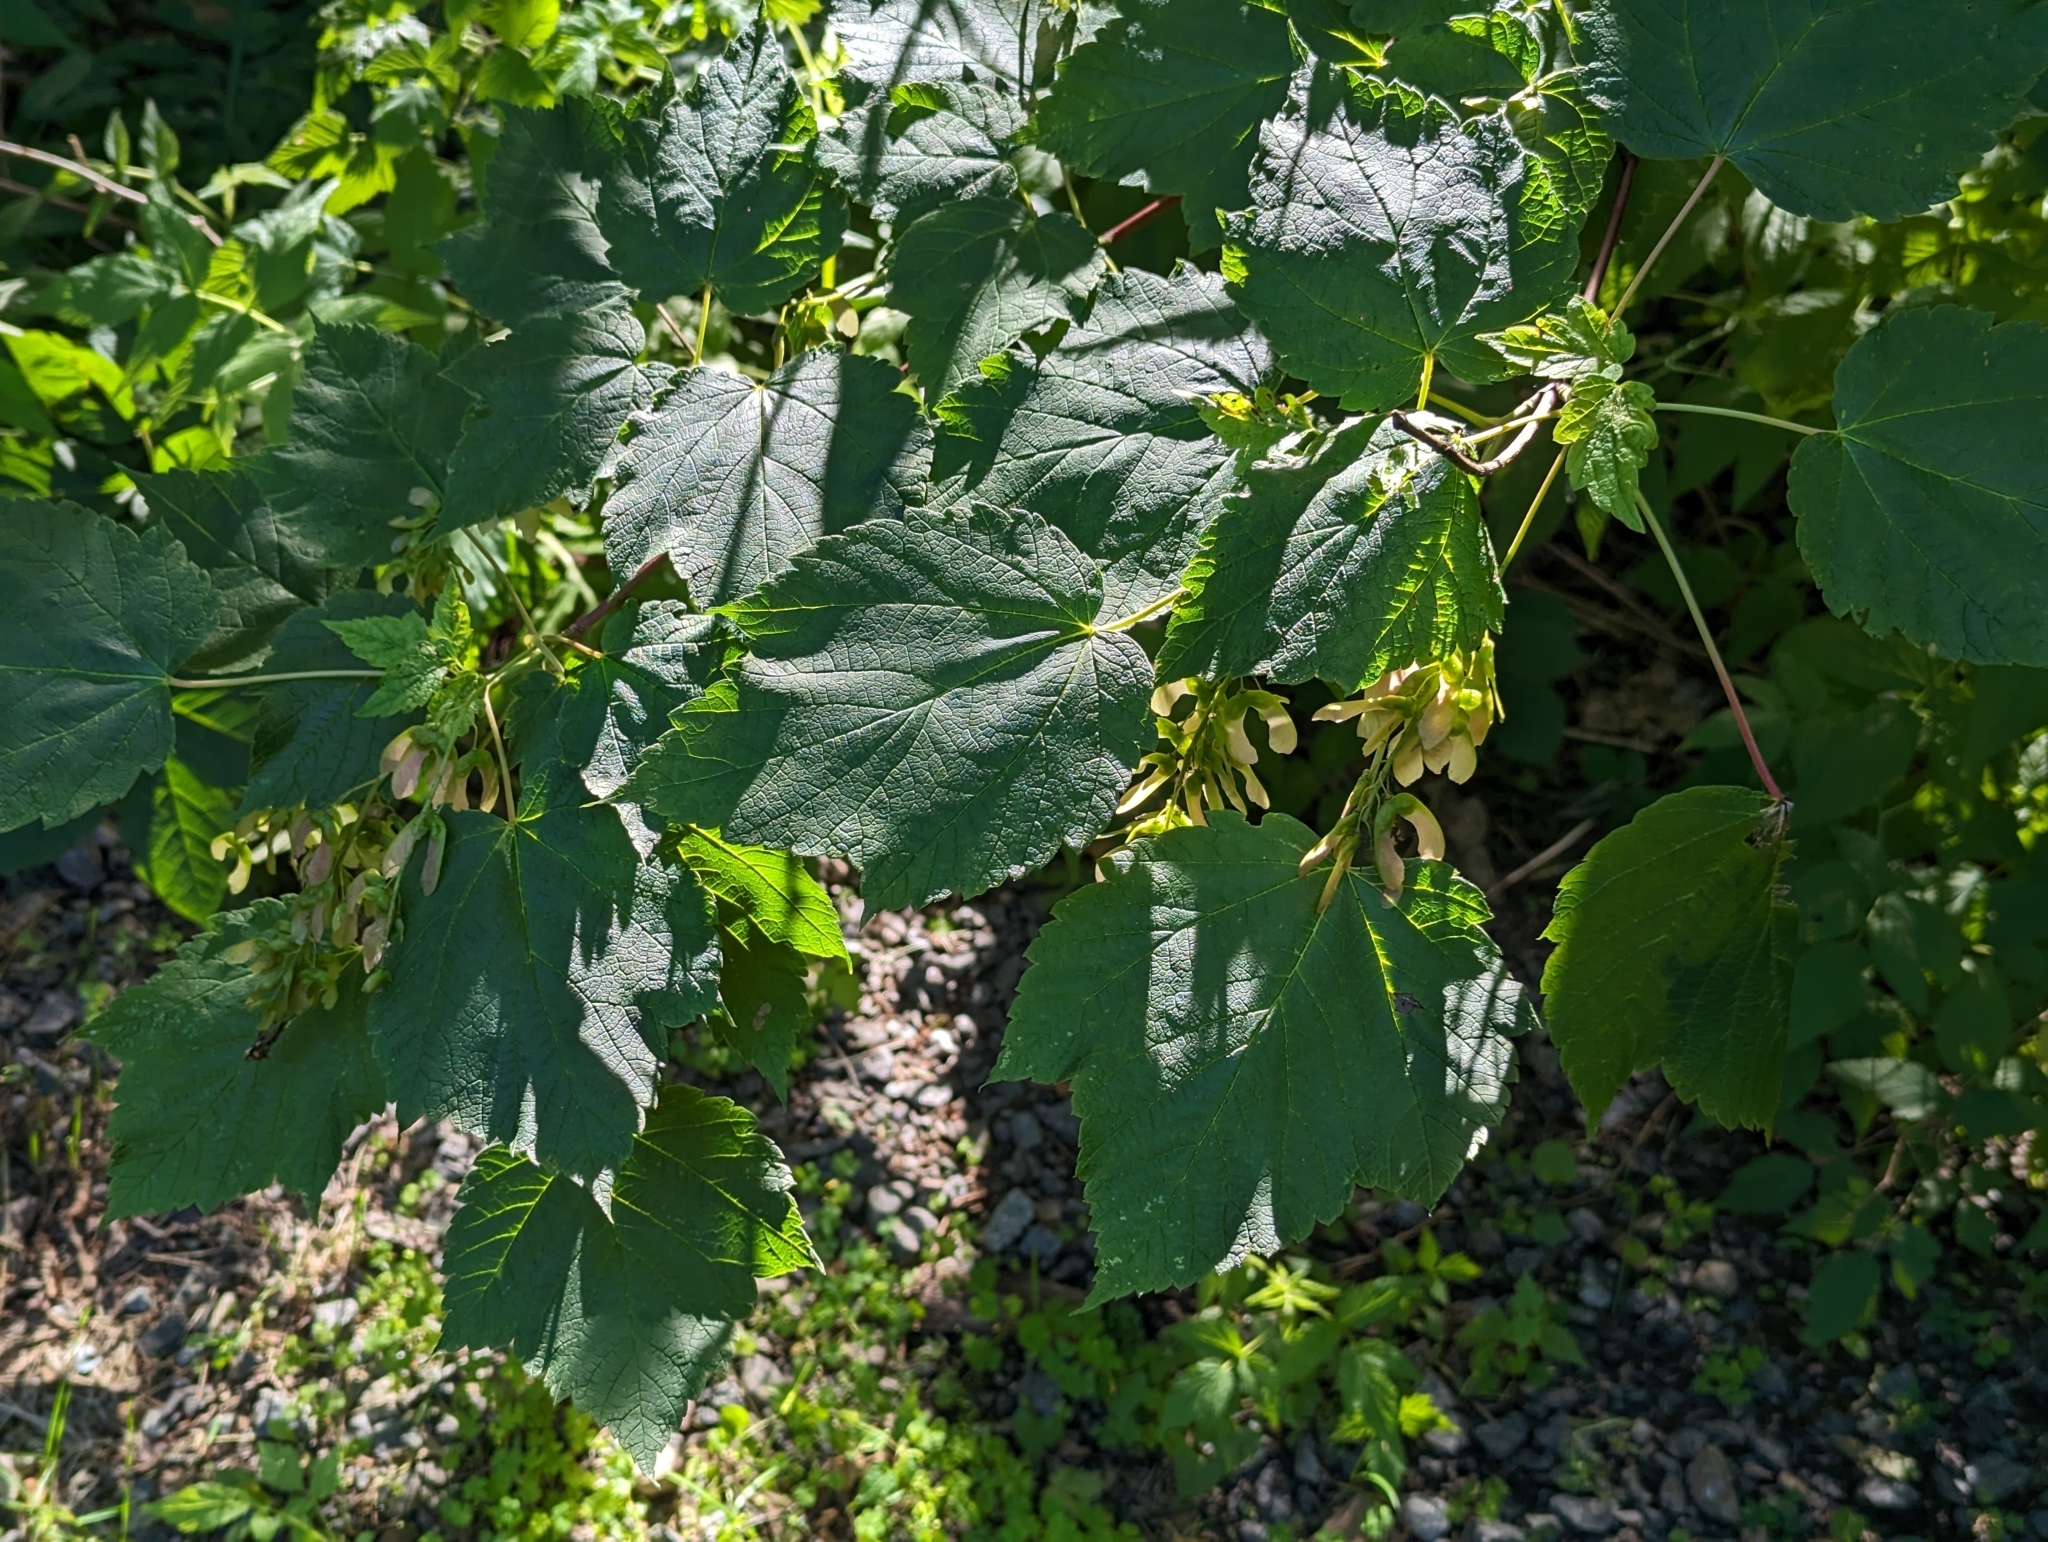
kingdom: Plantae
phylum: Tracheophyta
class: Magnoliopsida
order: Sapindales
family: Sapindaceae
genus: Acer
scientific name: Acer spicatum
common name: Mountain maple
